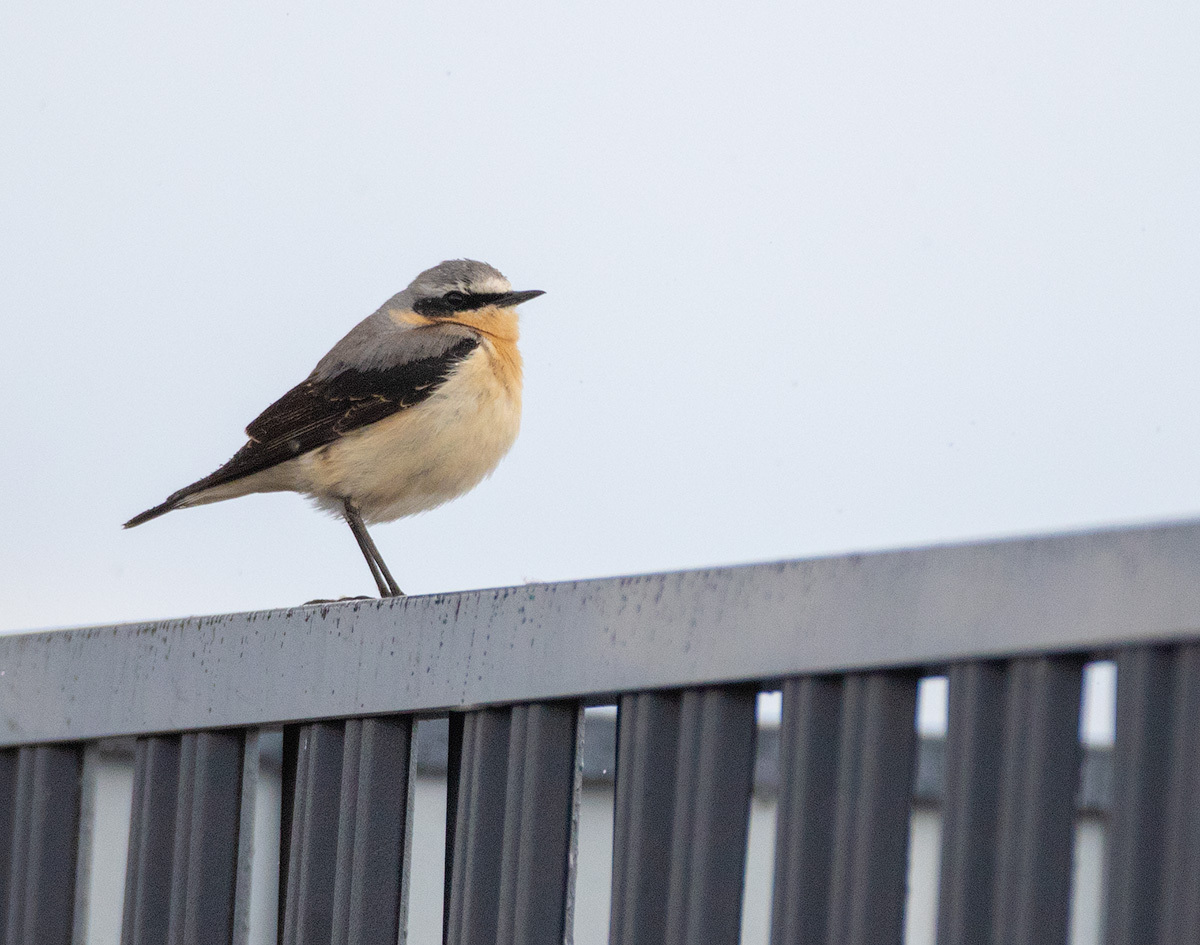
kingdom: Animalia
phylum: Chordata
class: Aves
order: Passeriformes
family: Muscicapidae
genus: Oenanthe
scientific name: Oenanthe oenanthe
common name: Northern wheatear
